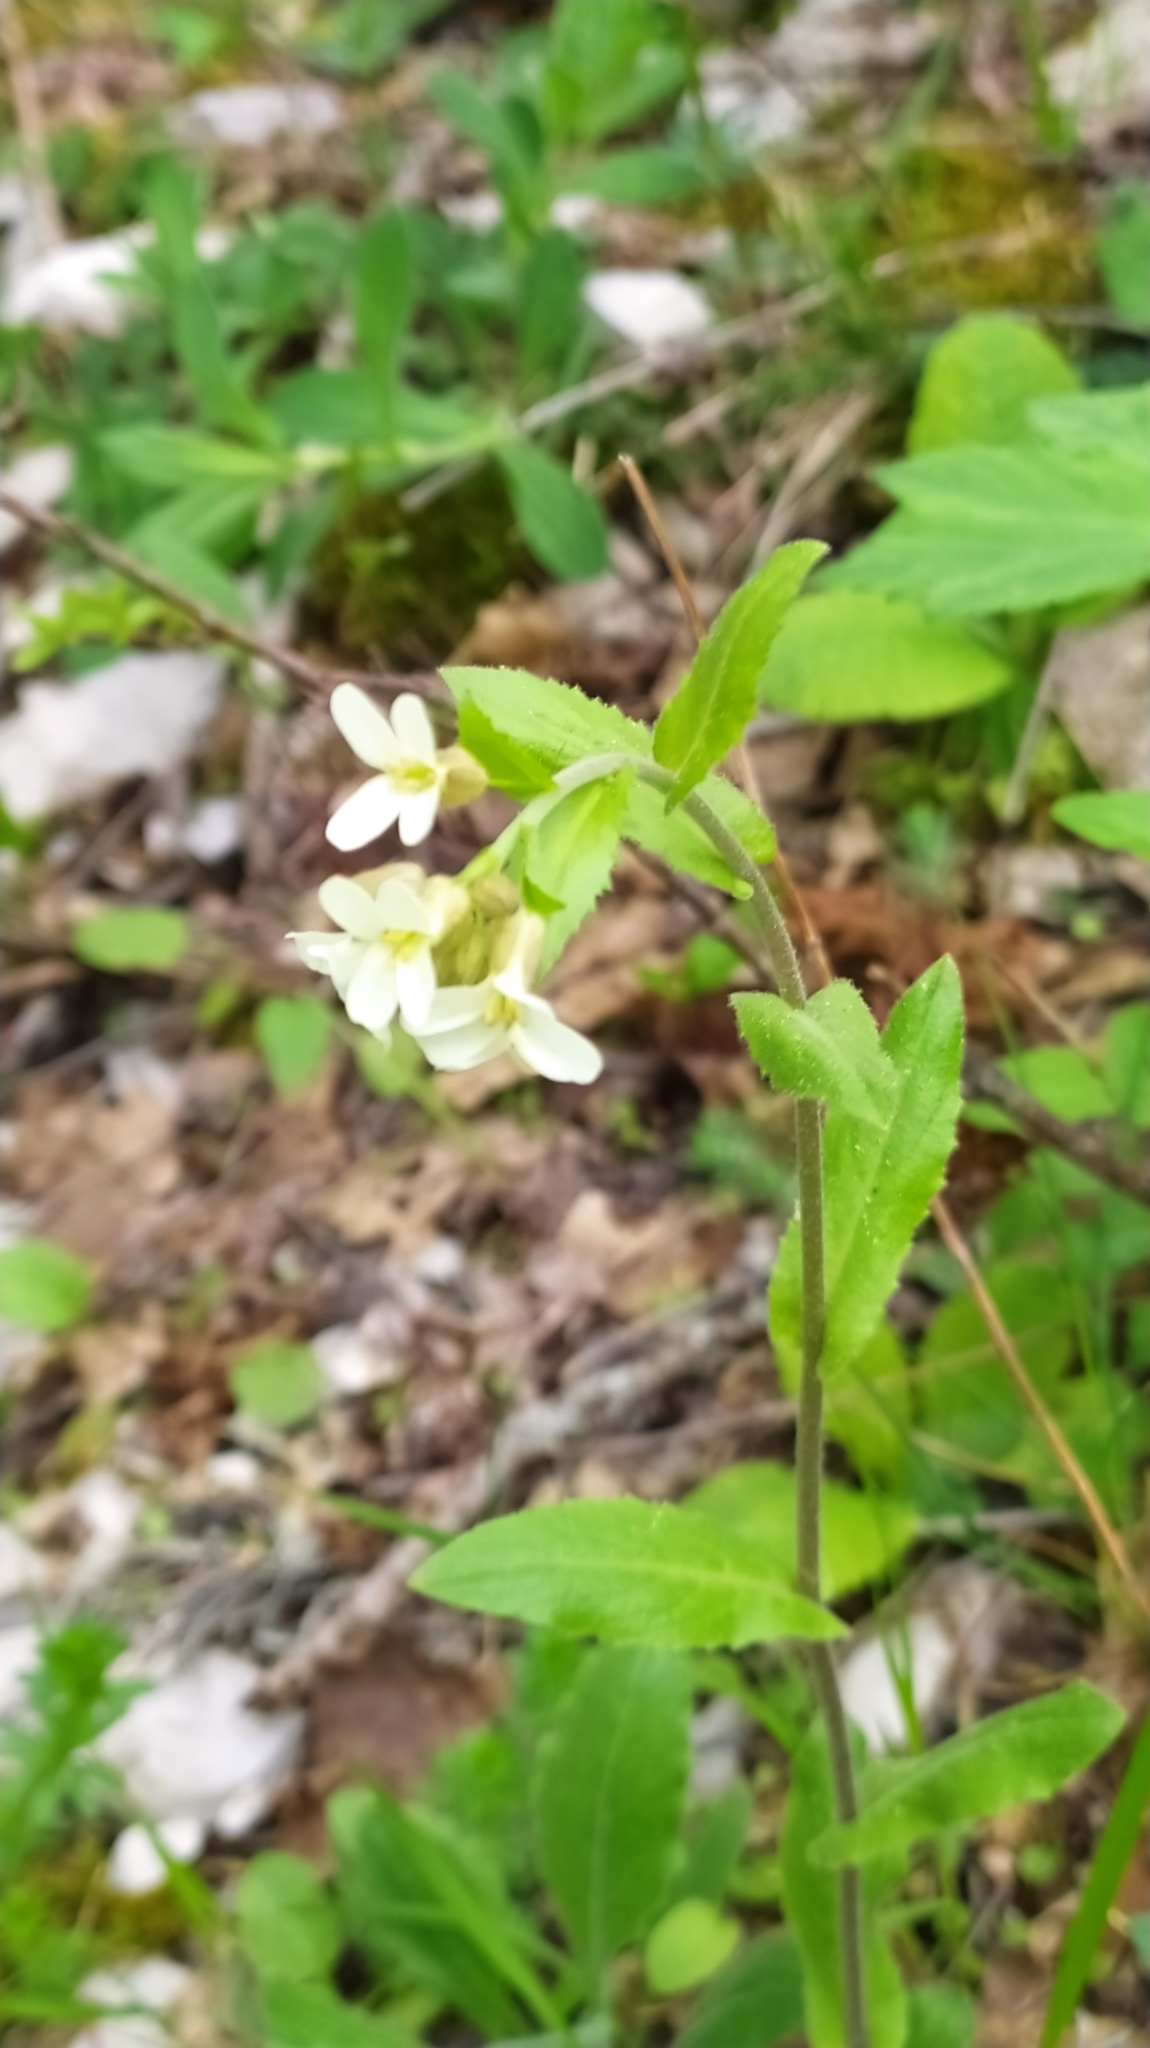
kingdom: Plantae
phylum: Tracheophyta
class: Magnoliopsida
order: Brassicales
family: Brassicaceae
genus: Pseudoturritis
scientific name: Pseudoturritis turrita
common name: Tower cress
